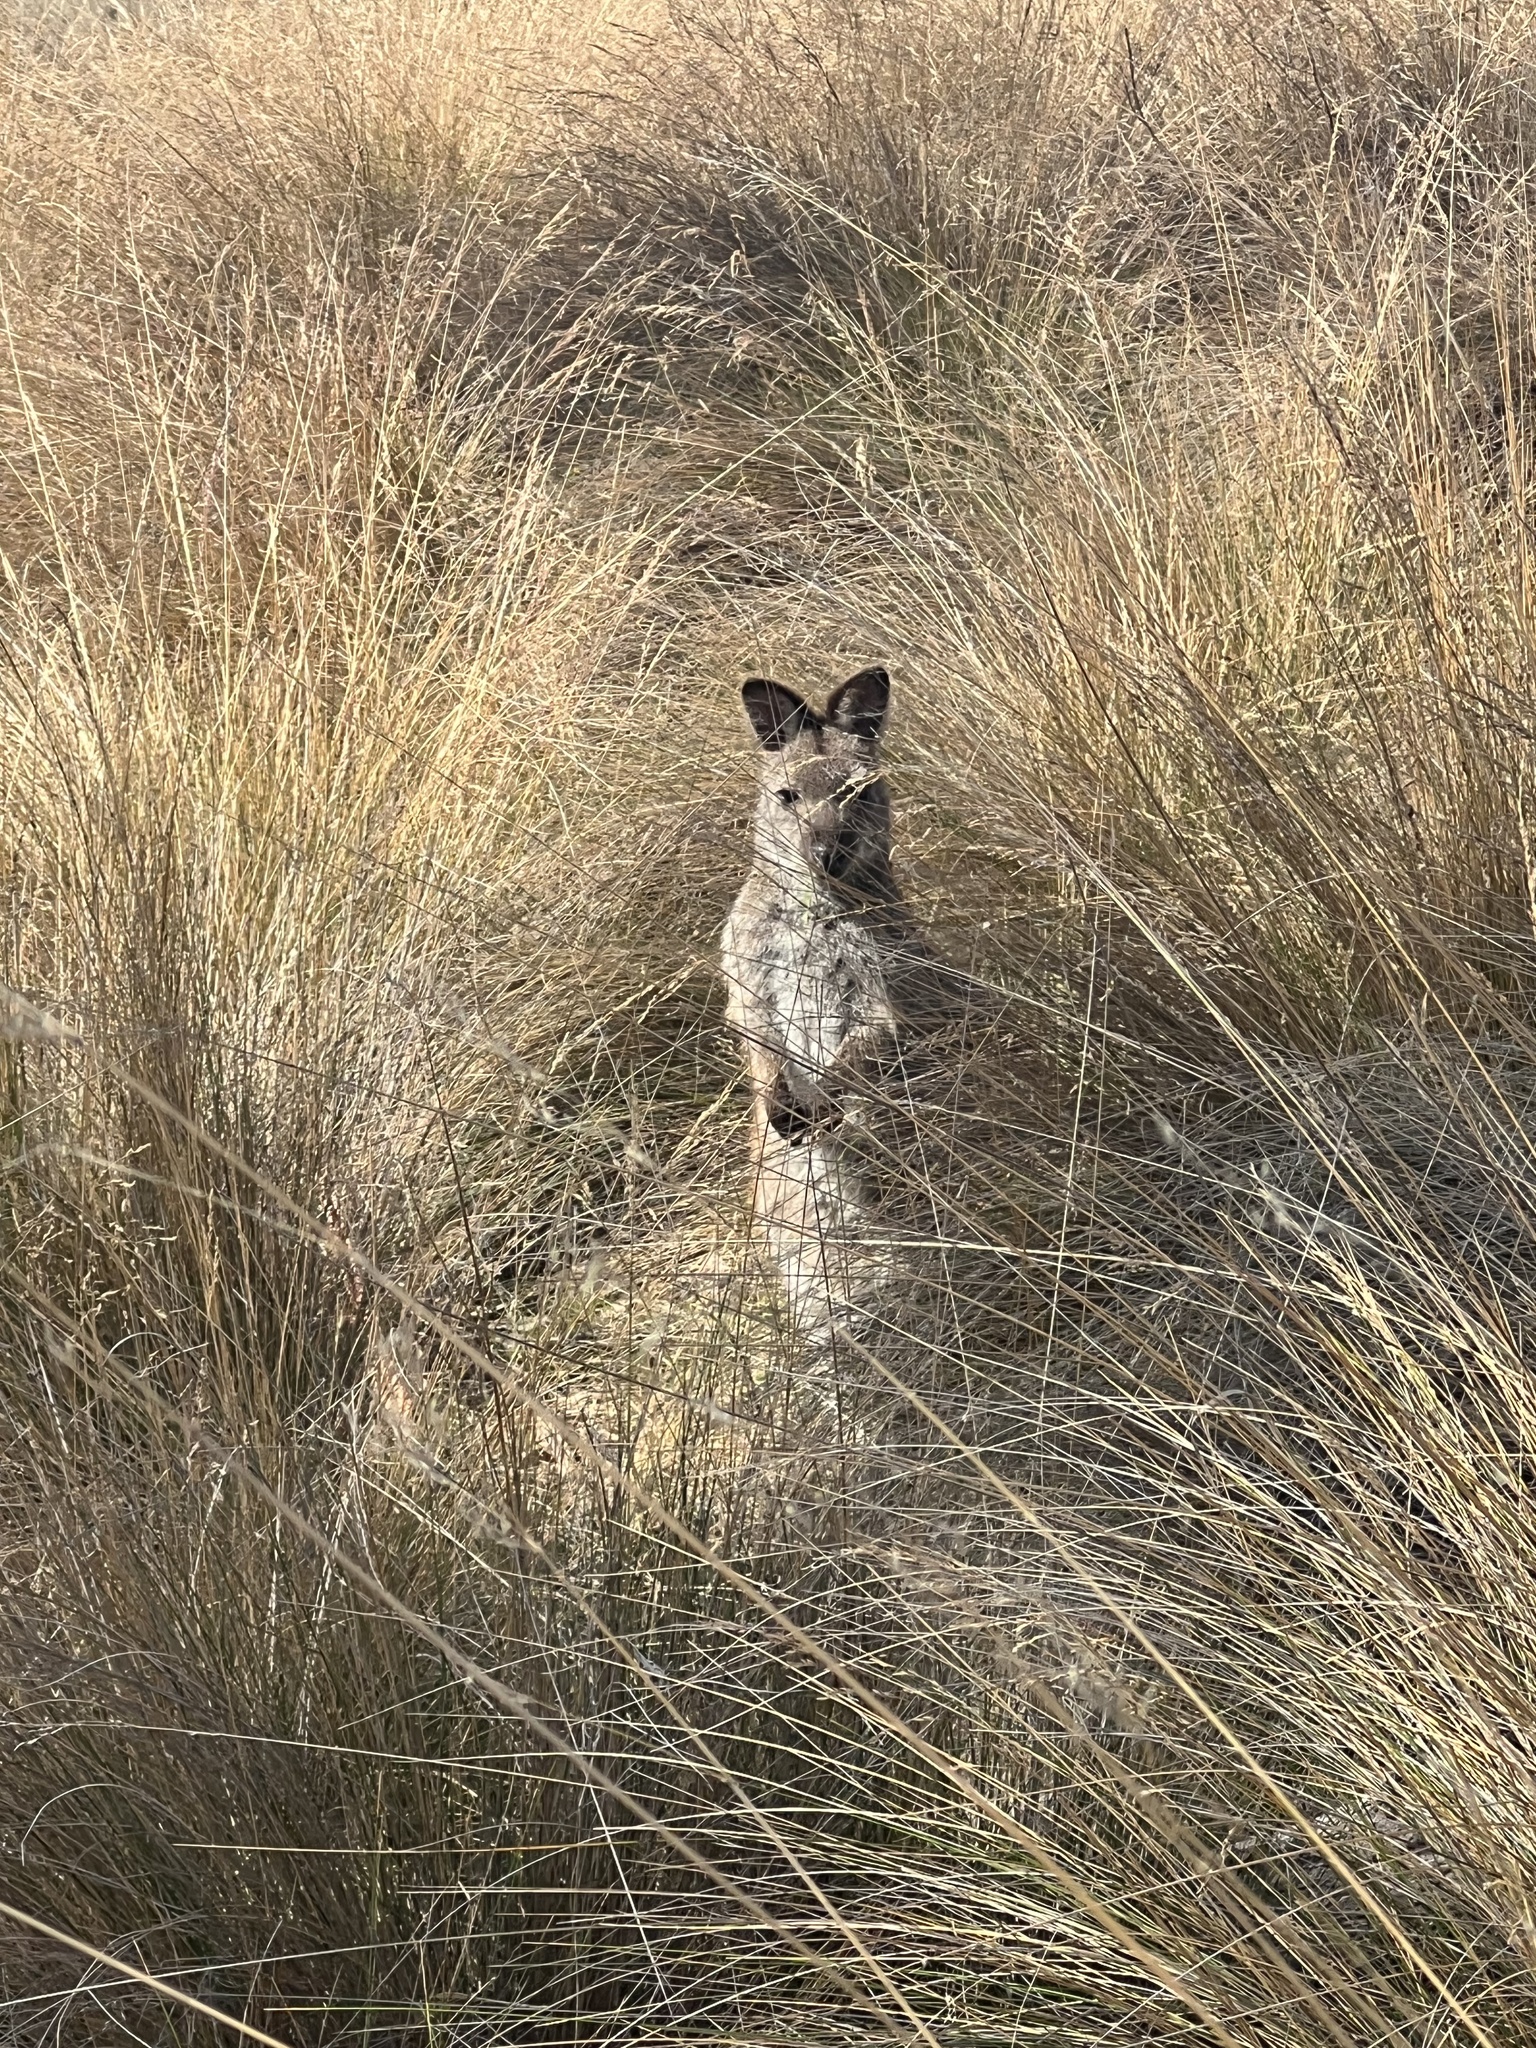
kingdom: Animalia
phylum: Chordata
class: Mammalia
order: Diprotodontia
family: Macropodidae
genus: Notamacropus
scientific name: Notamacropus rufogriseus
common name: Red-necked wallaby
